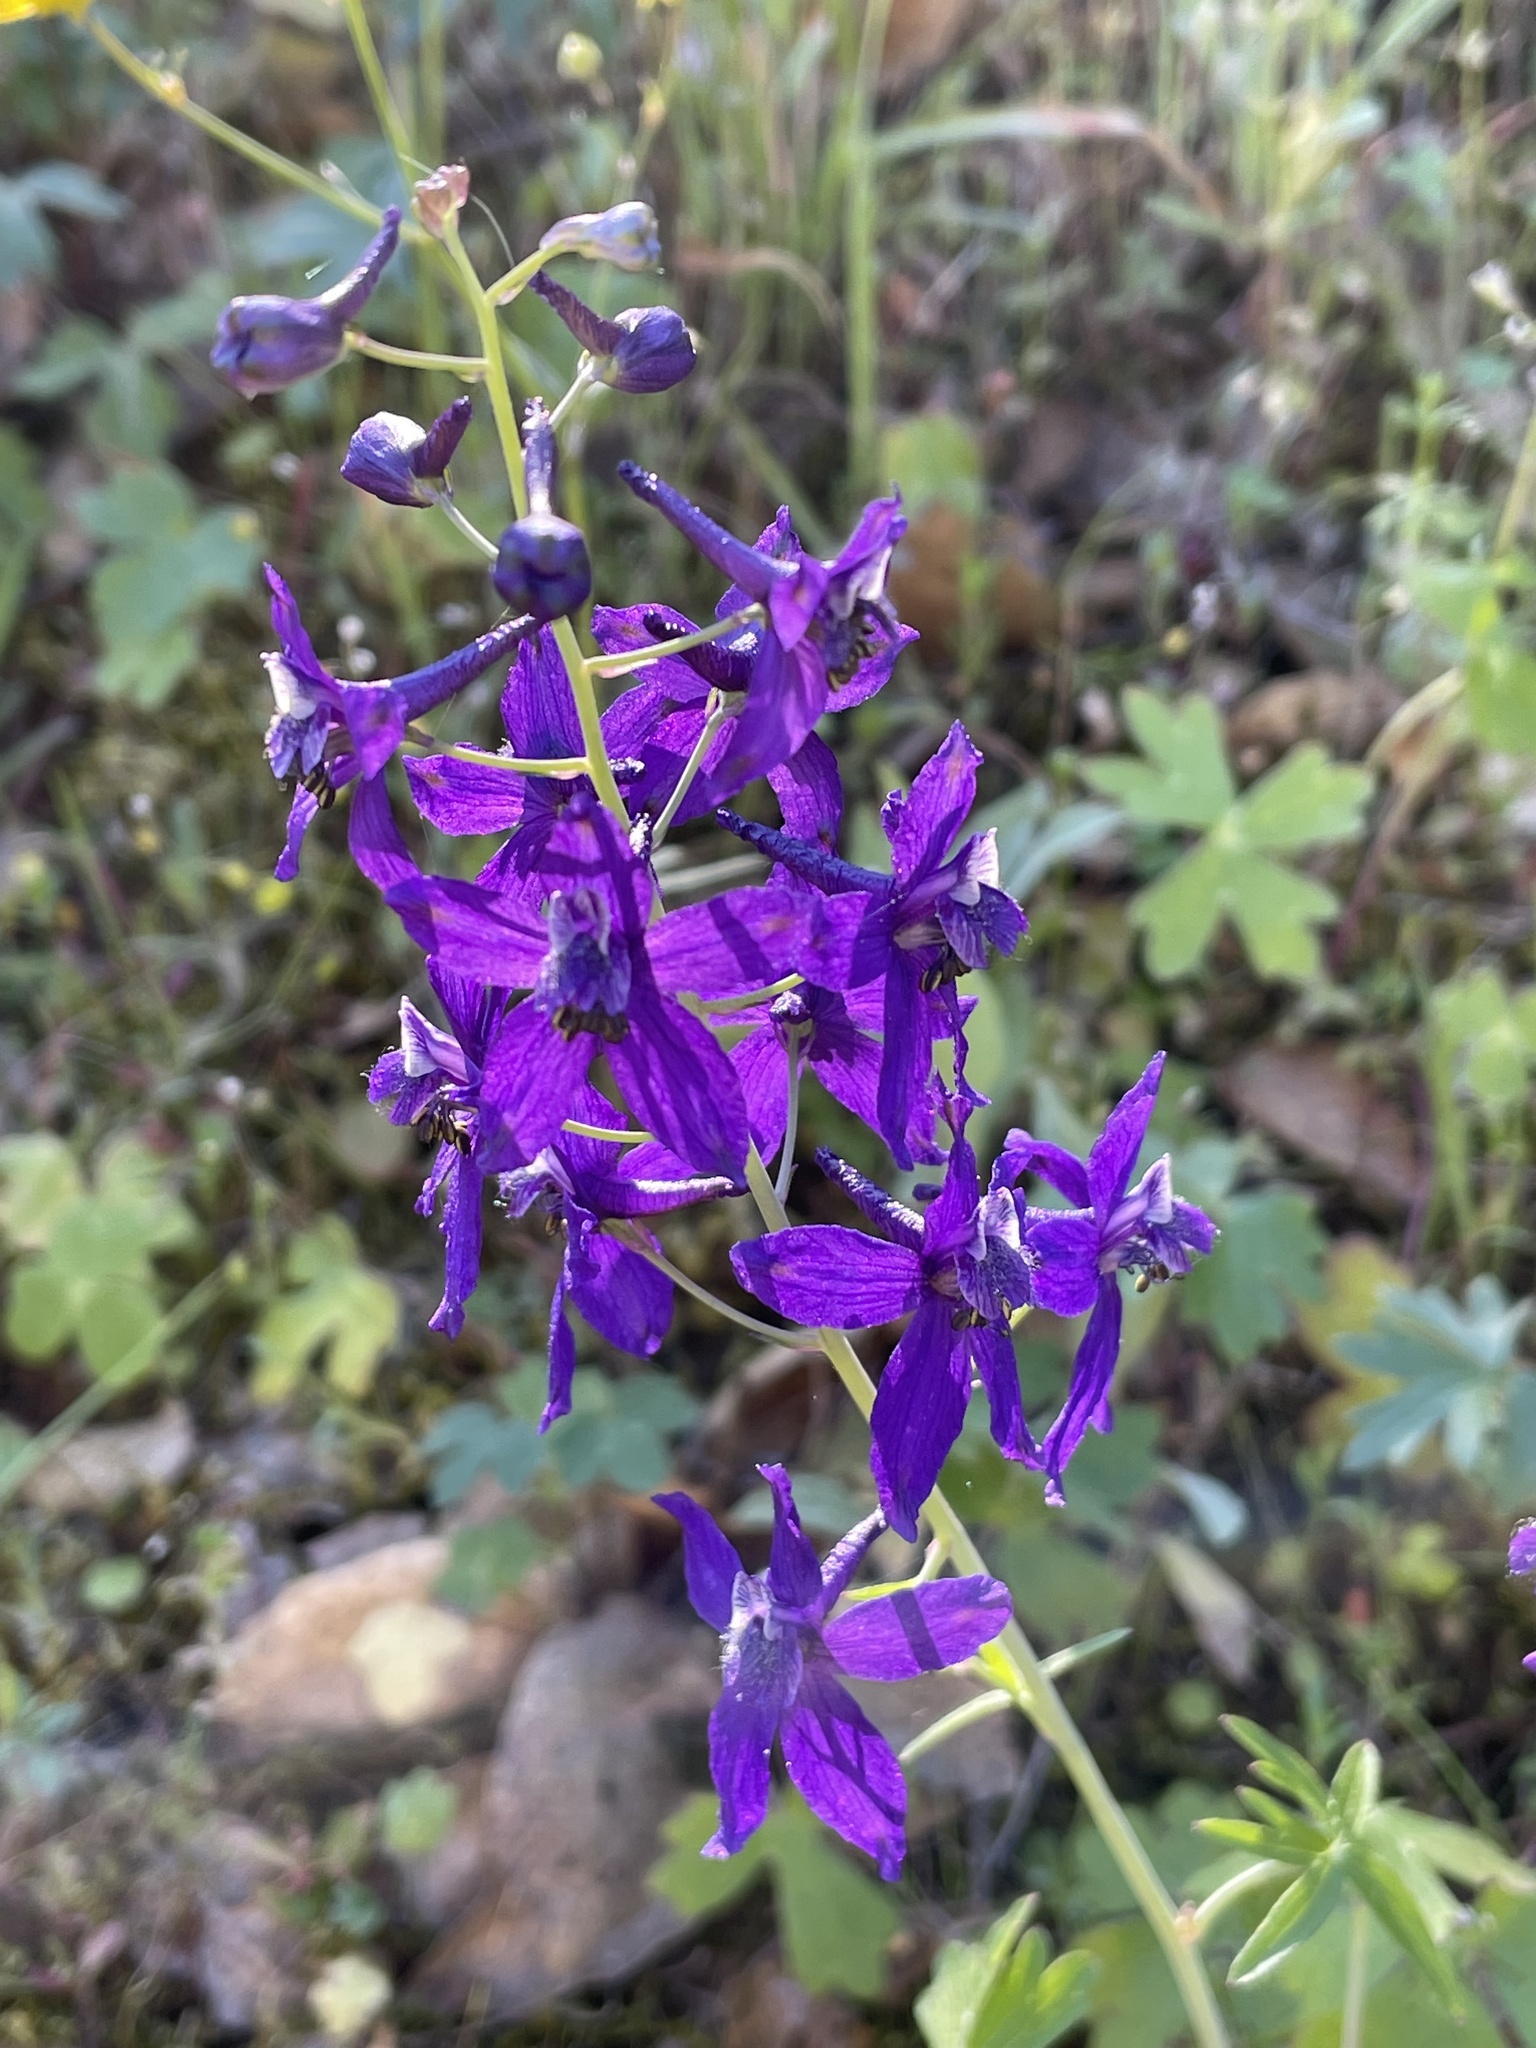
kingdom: Plantae
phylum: Tracheophyta
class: Magnoliopsida
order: Ranunculales
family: Ranunculaceae
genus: Delphinium
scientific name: Delphinium patens
